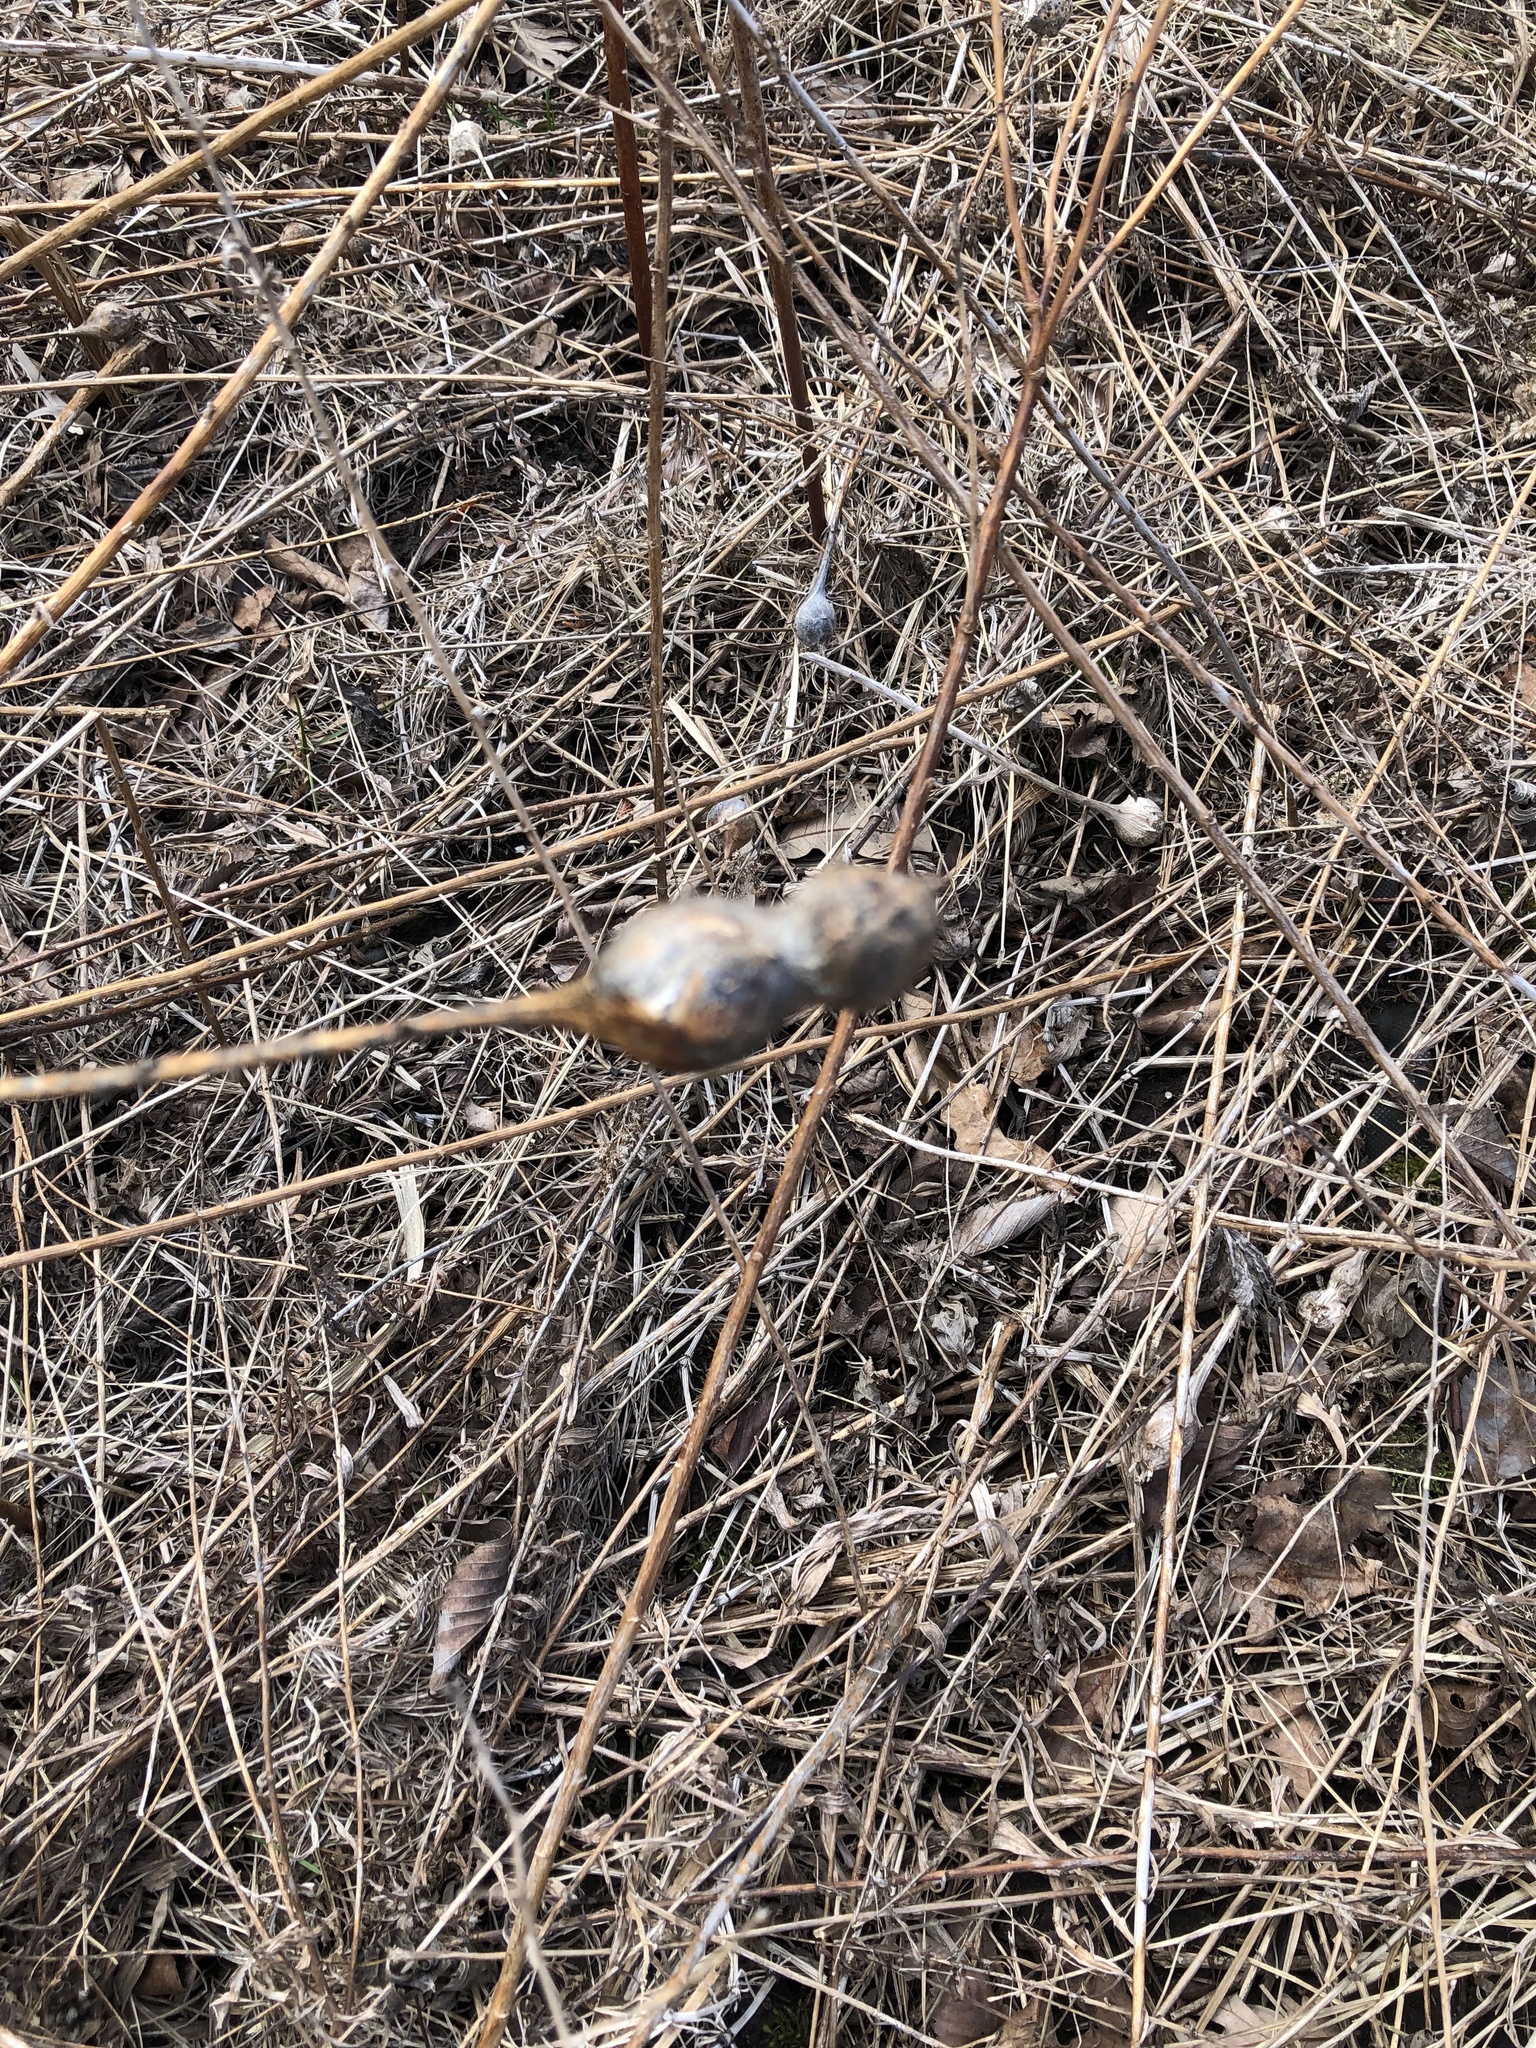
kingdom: Animalia
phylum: Arthropoda
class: Insecta
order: Diptera
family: Tephritidae
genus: Eurosta
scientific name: Eurosta solidaginis
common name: Goldenrod gall fly
